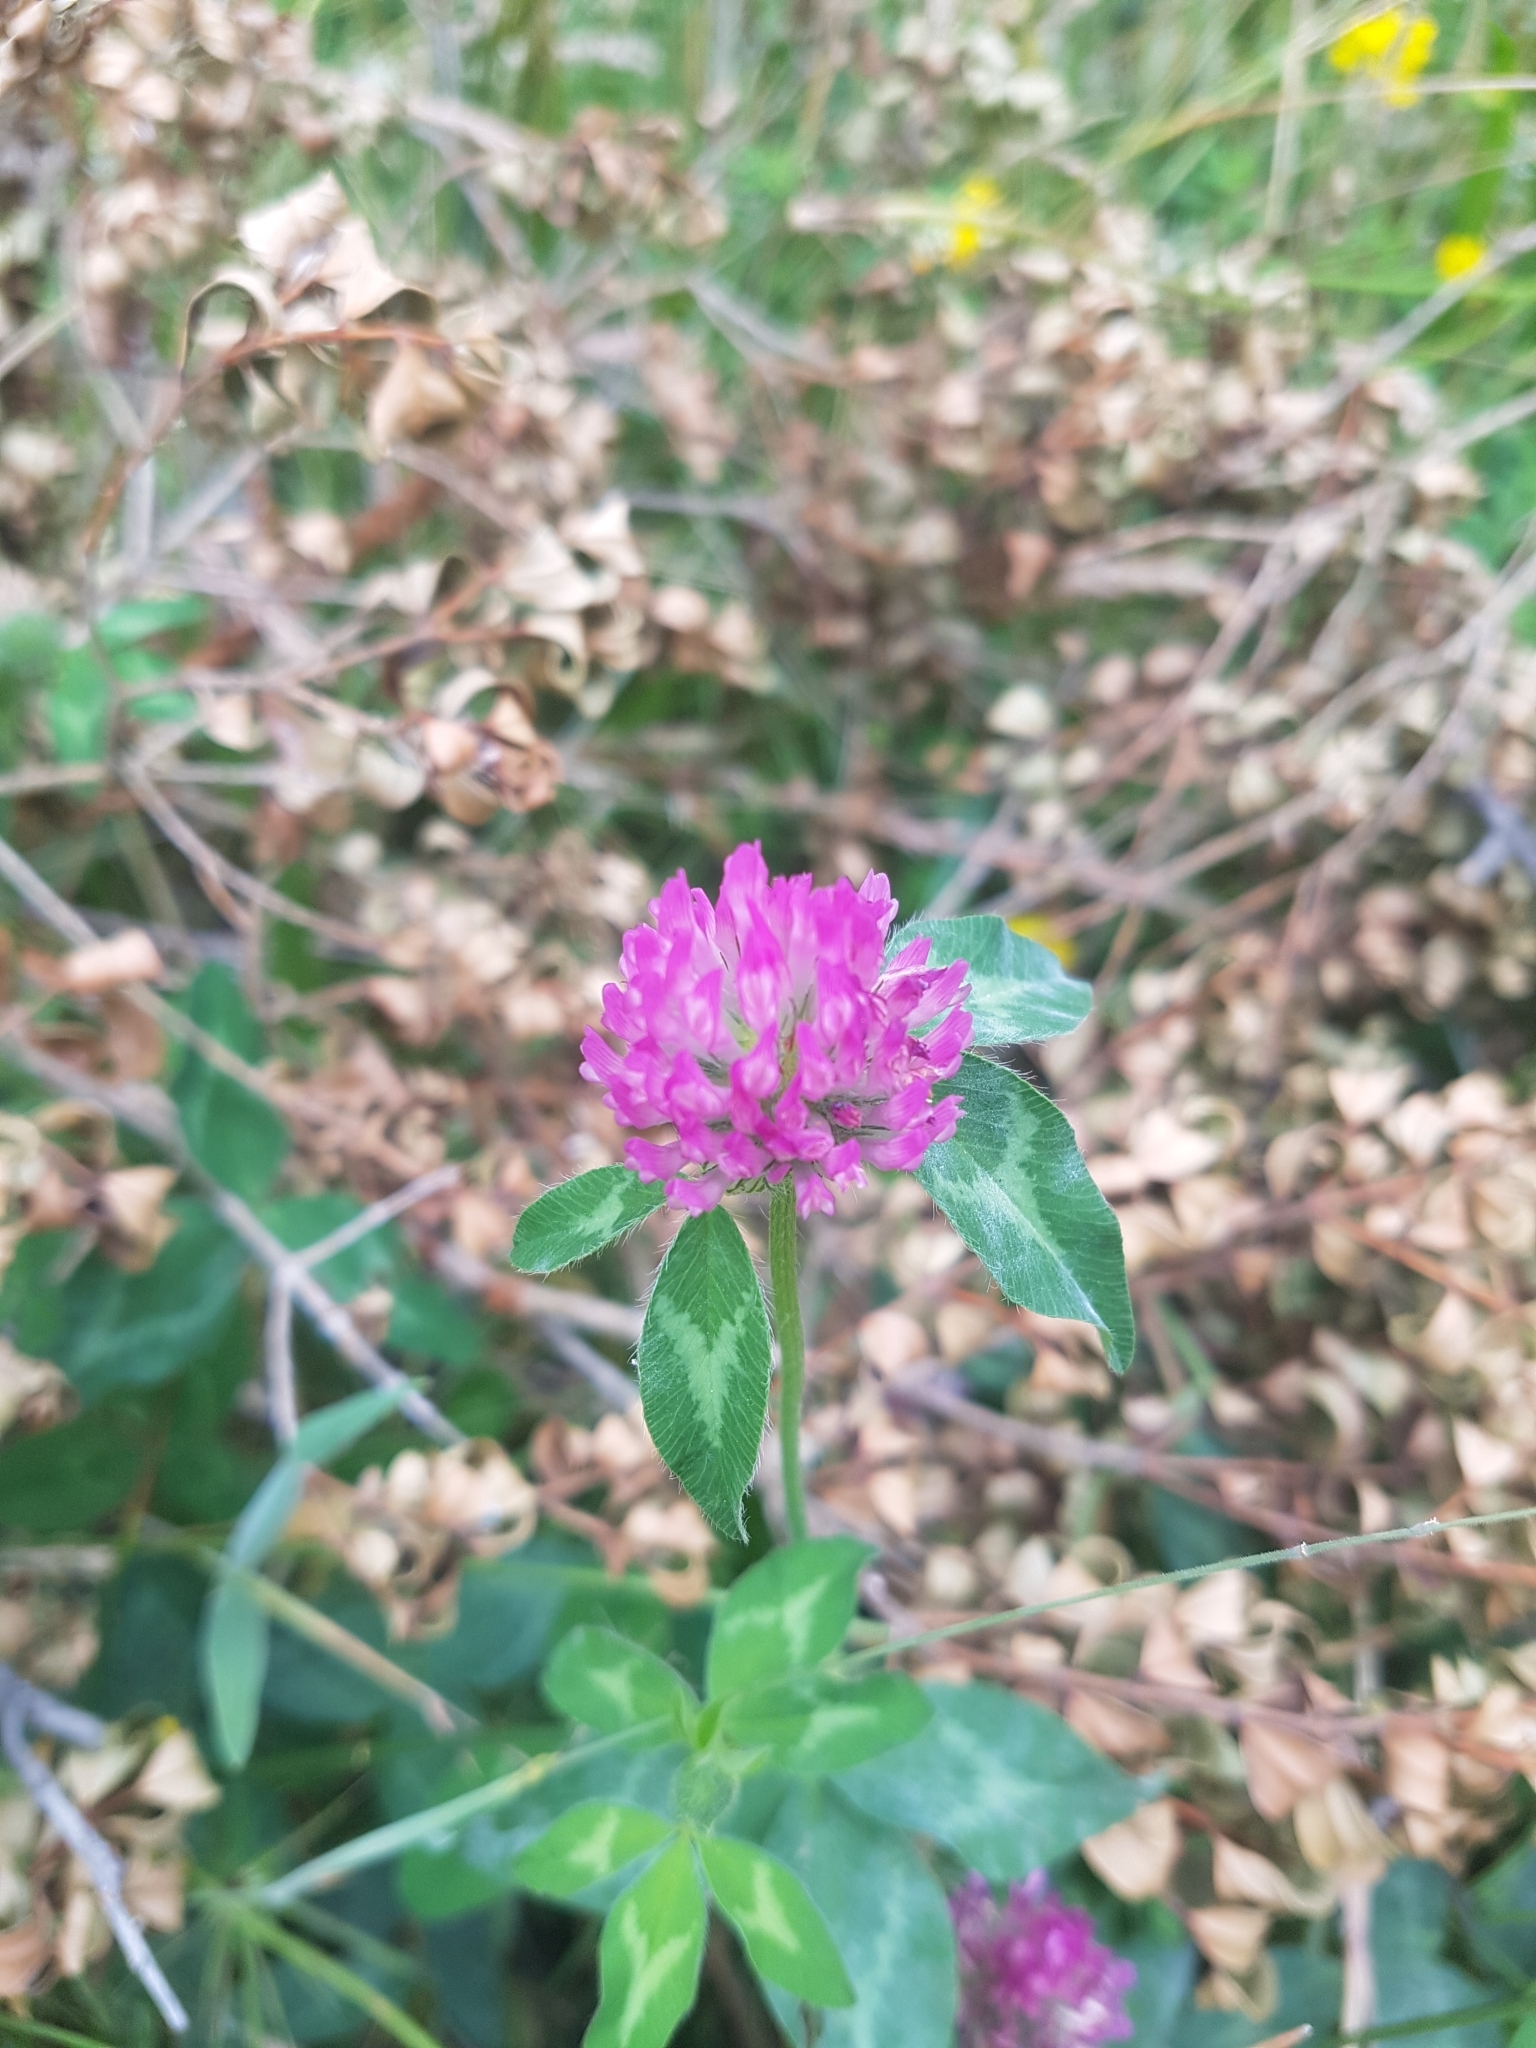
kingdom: Plantae
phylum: Tracheophyta
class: Magnoliopsida
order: Fabales
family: Fabaceae
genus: Trifolium
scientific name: Trifolium pratense
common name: Red clover
